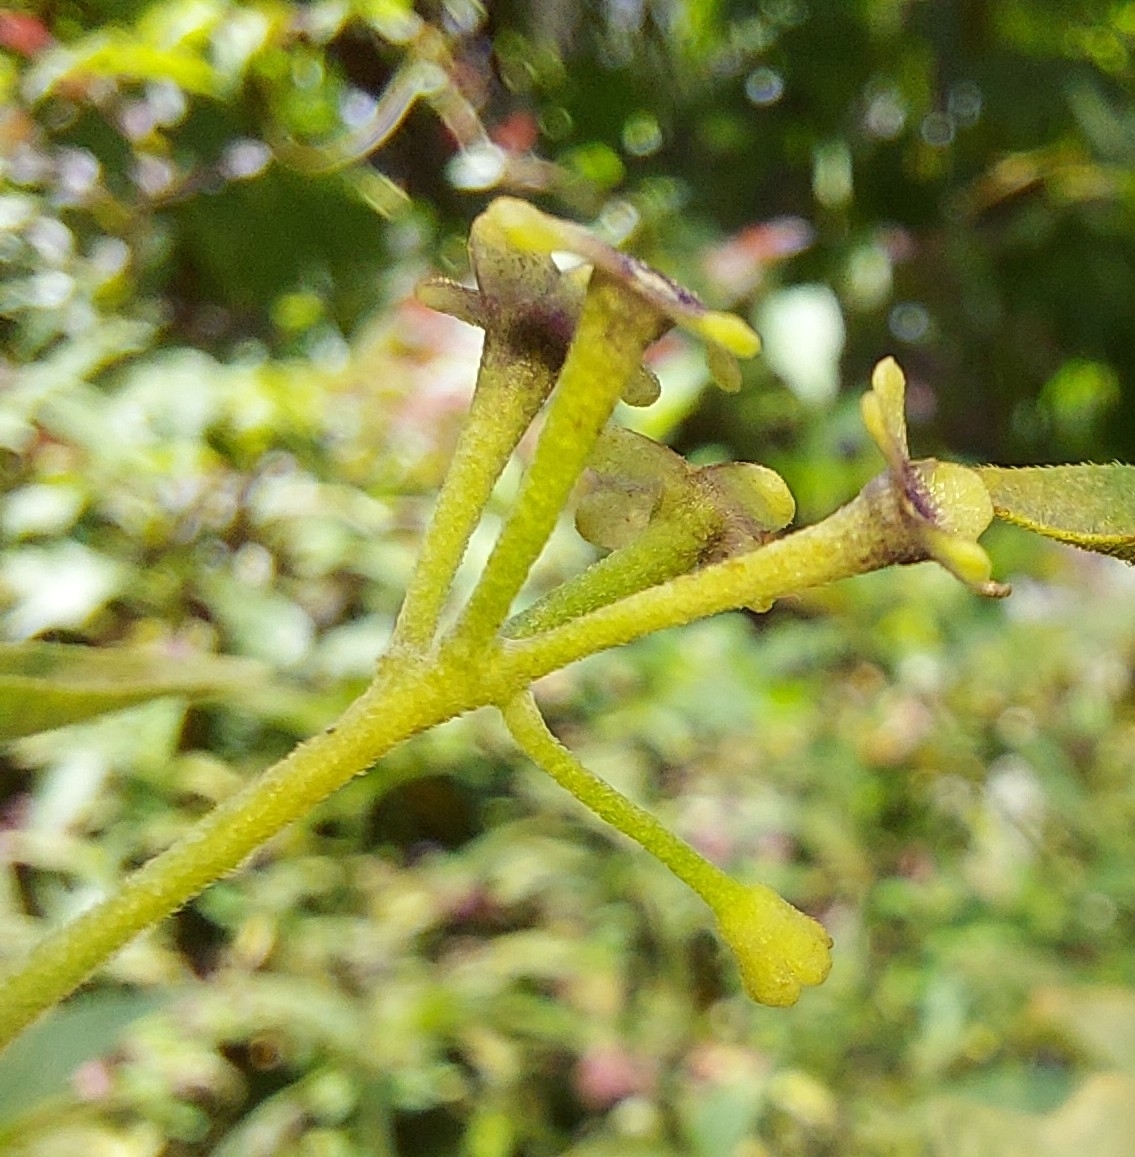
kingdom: Plantae
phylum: Tracheophyta
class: Magnoliopsida
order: Solanales
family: Solanaceae
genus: Solanum
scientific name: Solanum americanum
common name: American black nightshade
